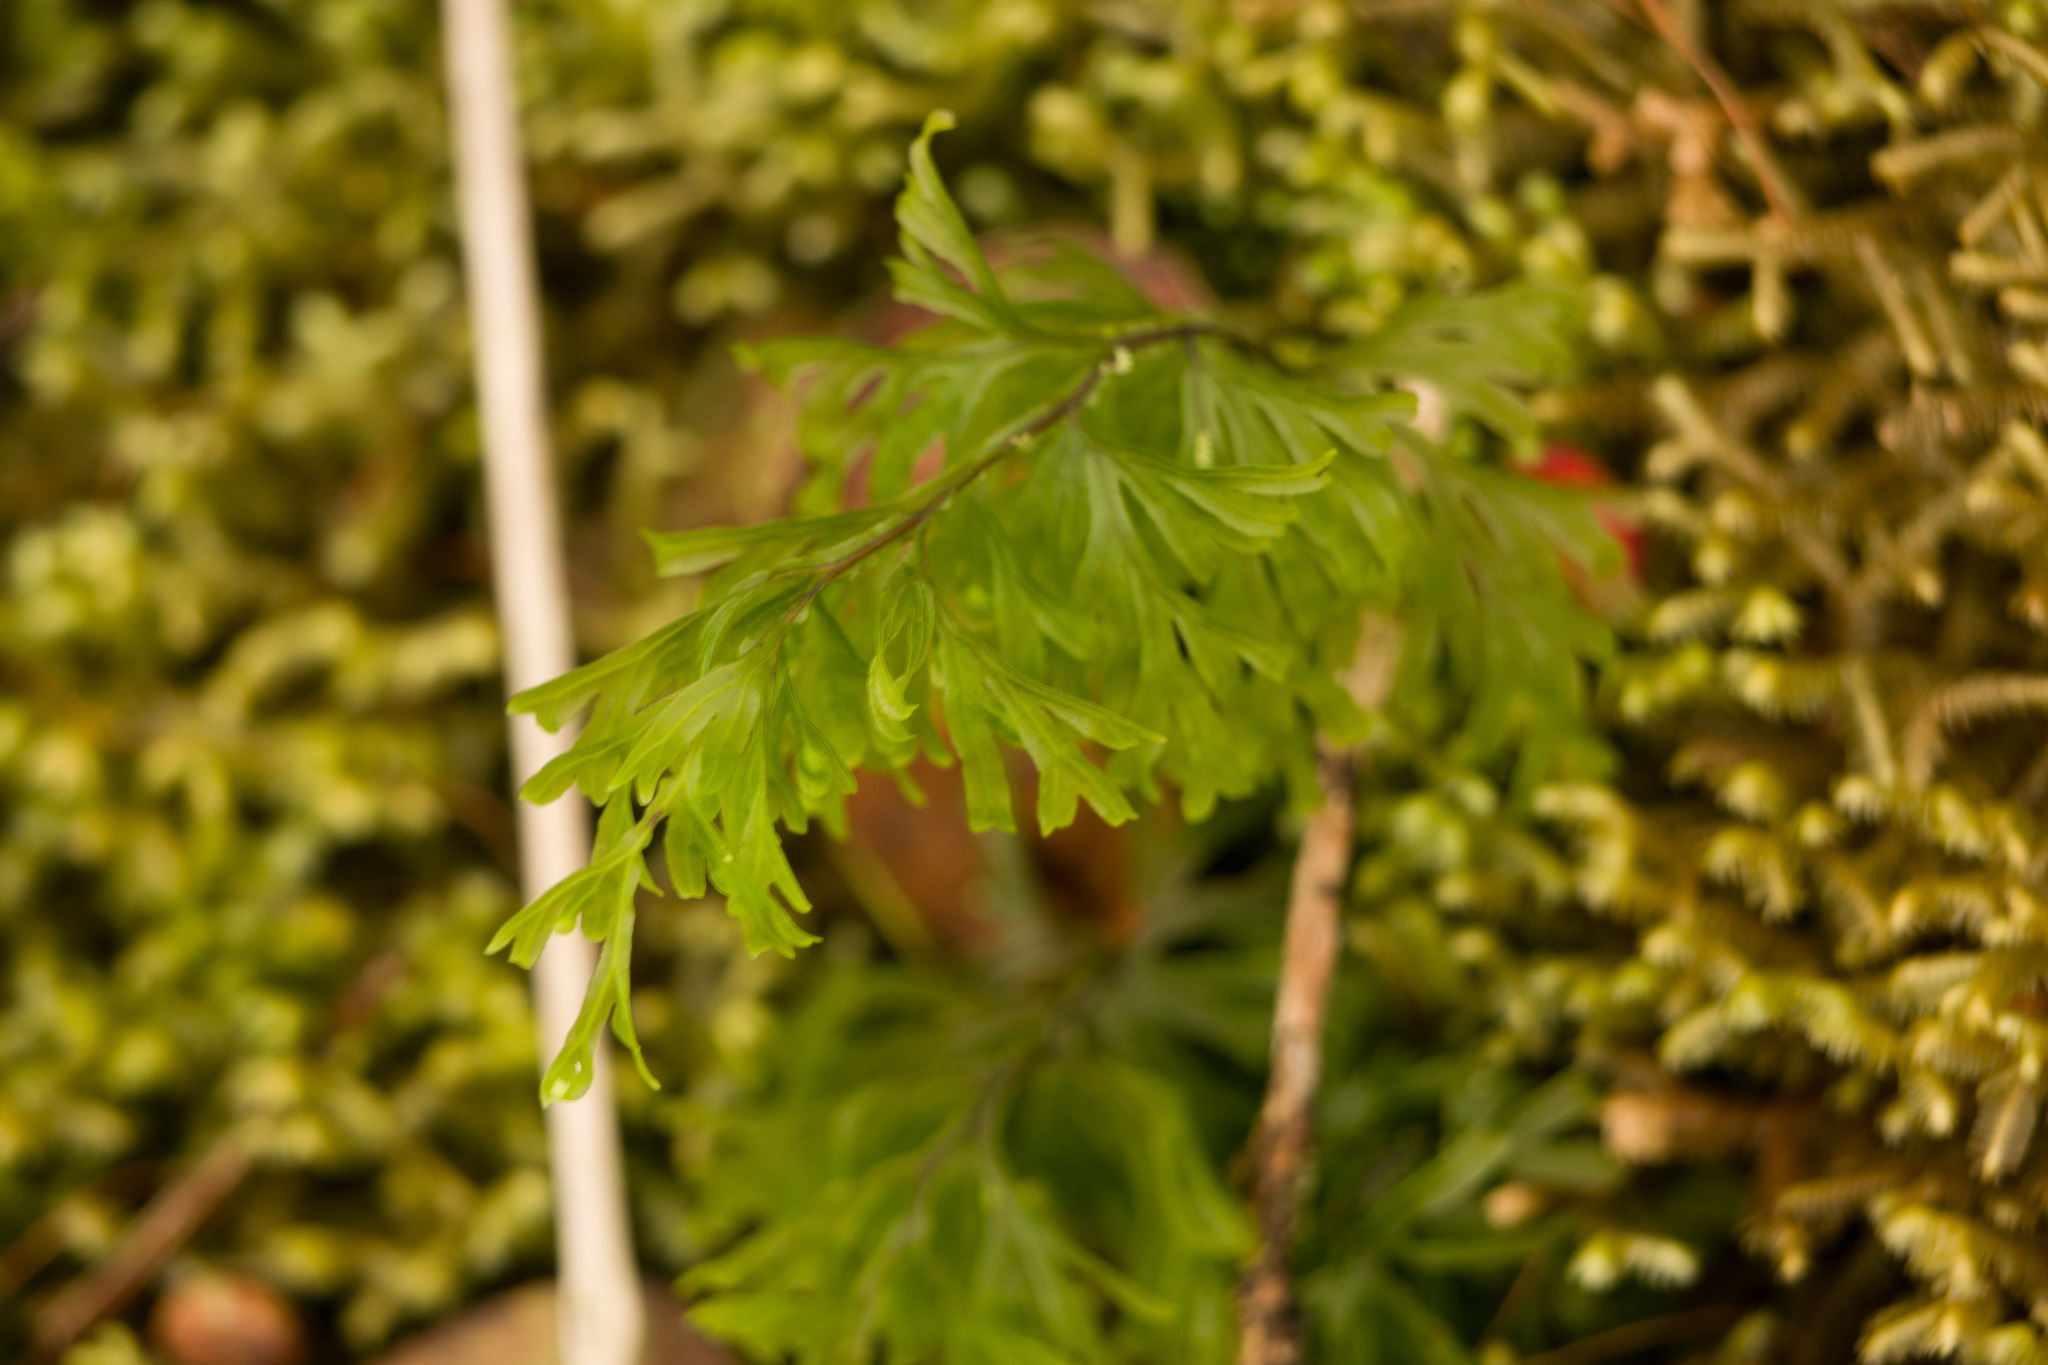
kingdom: Plantae
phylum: Tracheophyta
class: Polypodiopsida
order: Hymenophyllales
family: Hymenophyllaceae
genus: Hymenophyllum
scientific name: Hymenophyllum recurvum
